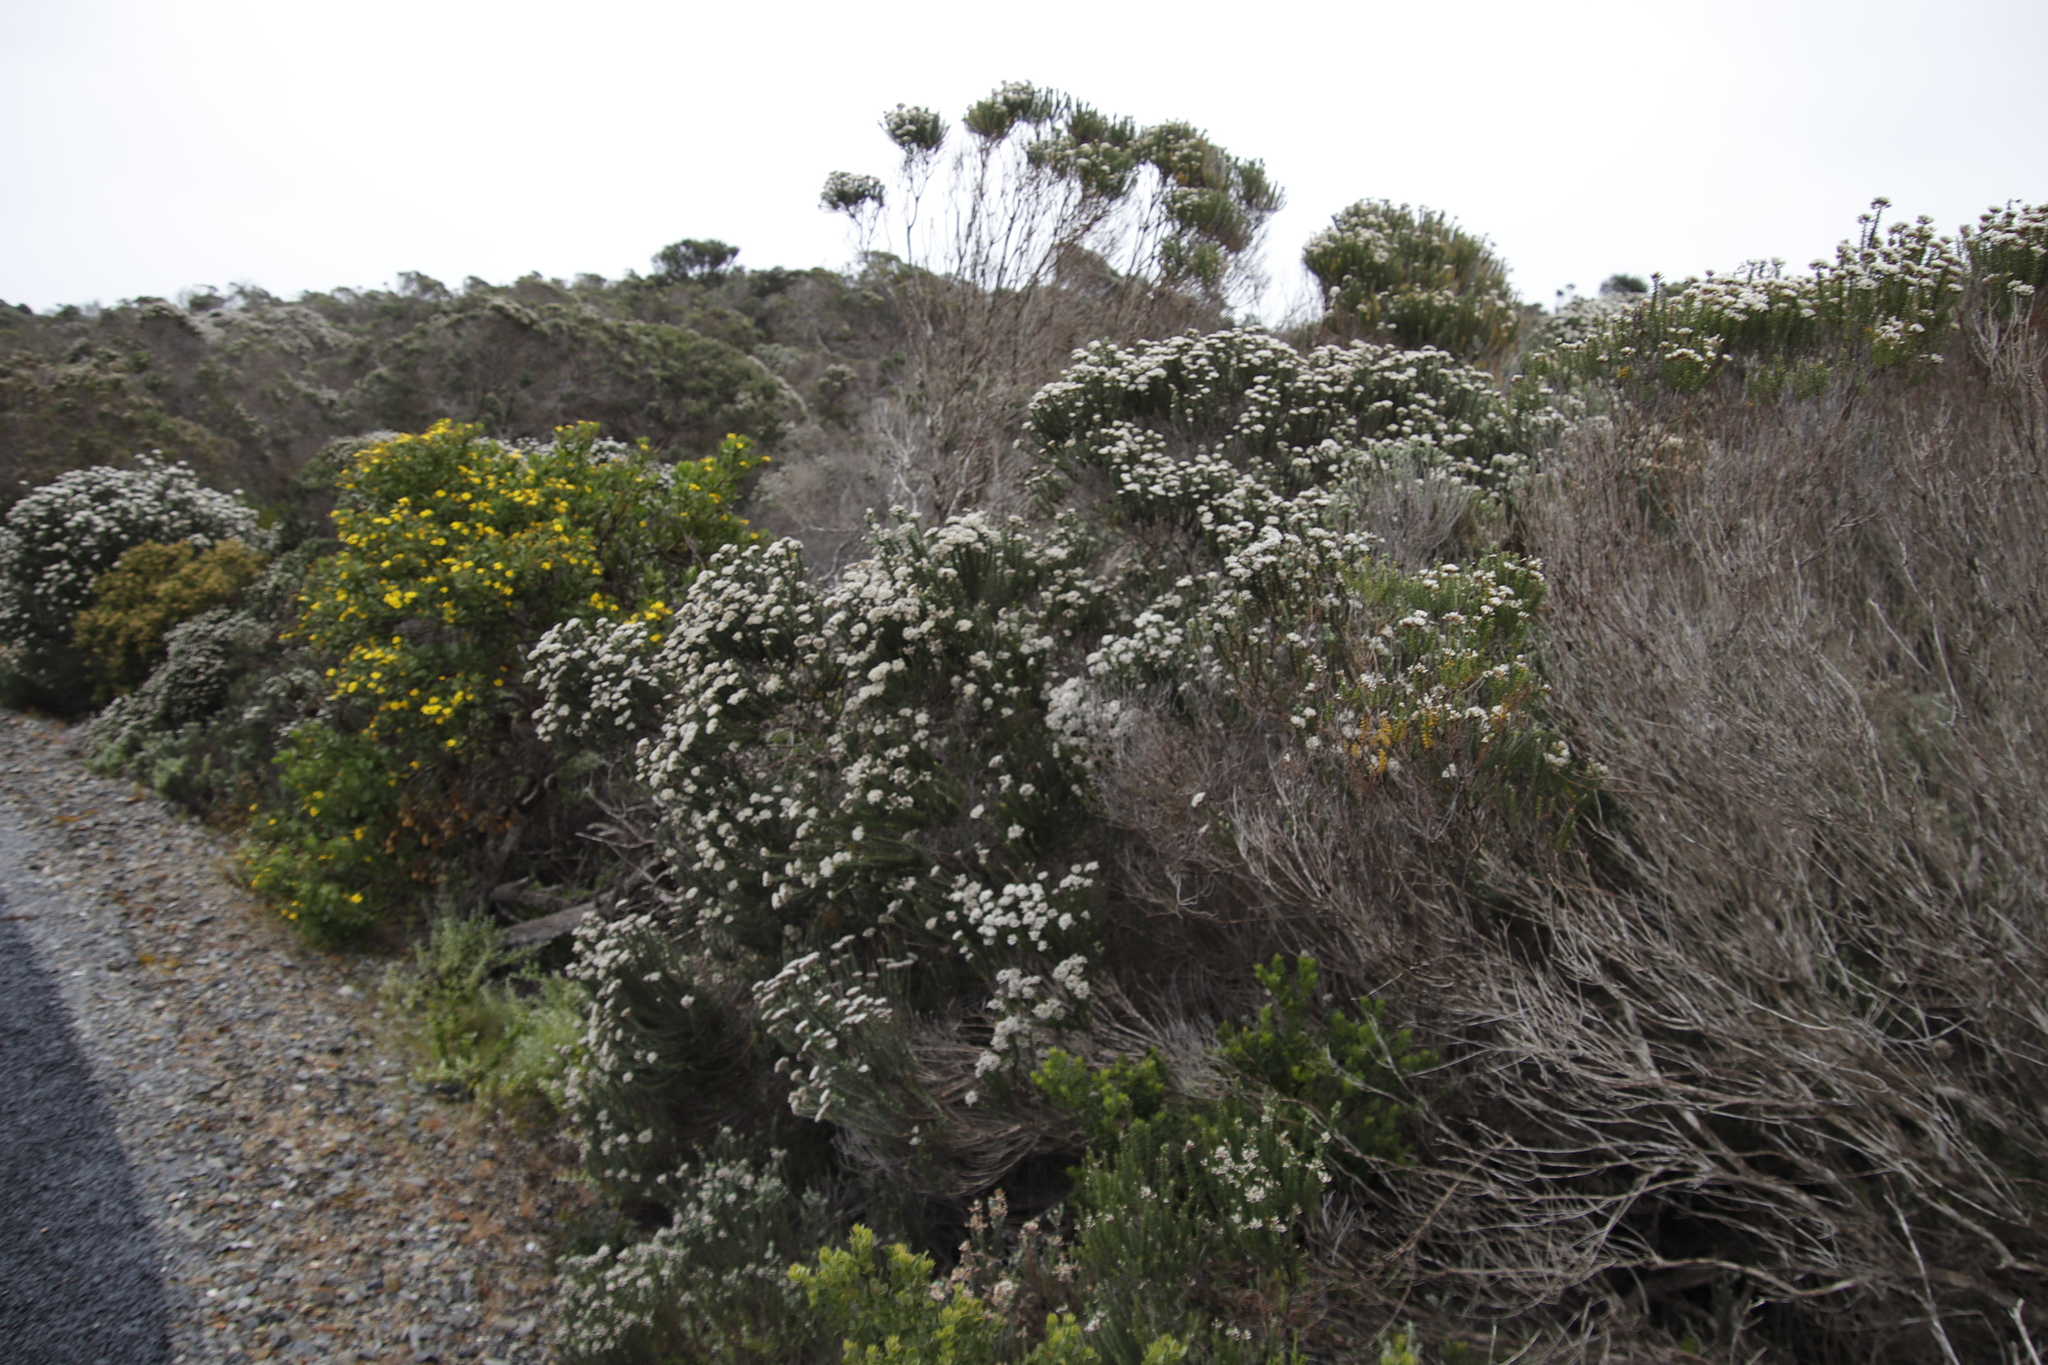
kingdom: Plantae
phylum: Tracheophyta
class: Magnoliopsida
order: Asterales
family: Asteraceae
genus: Metalasia
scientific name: Metalasia muricata
